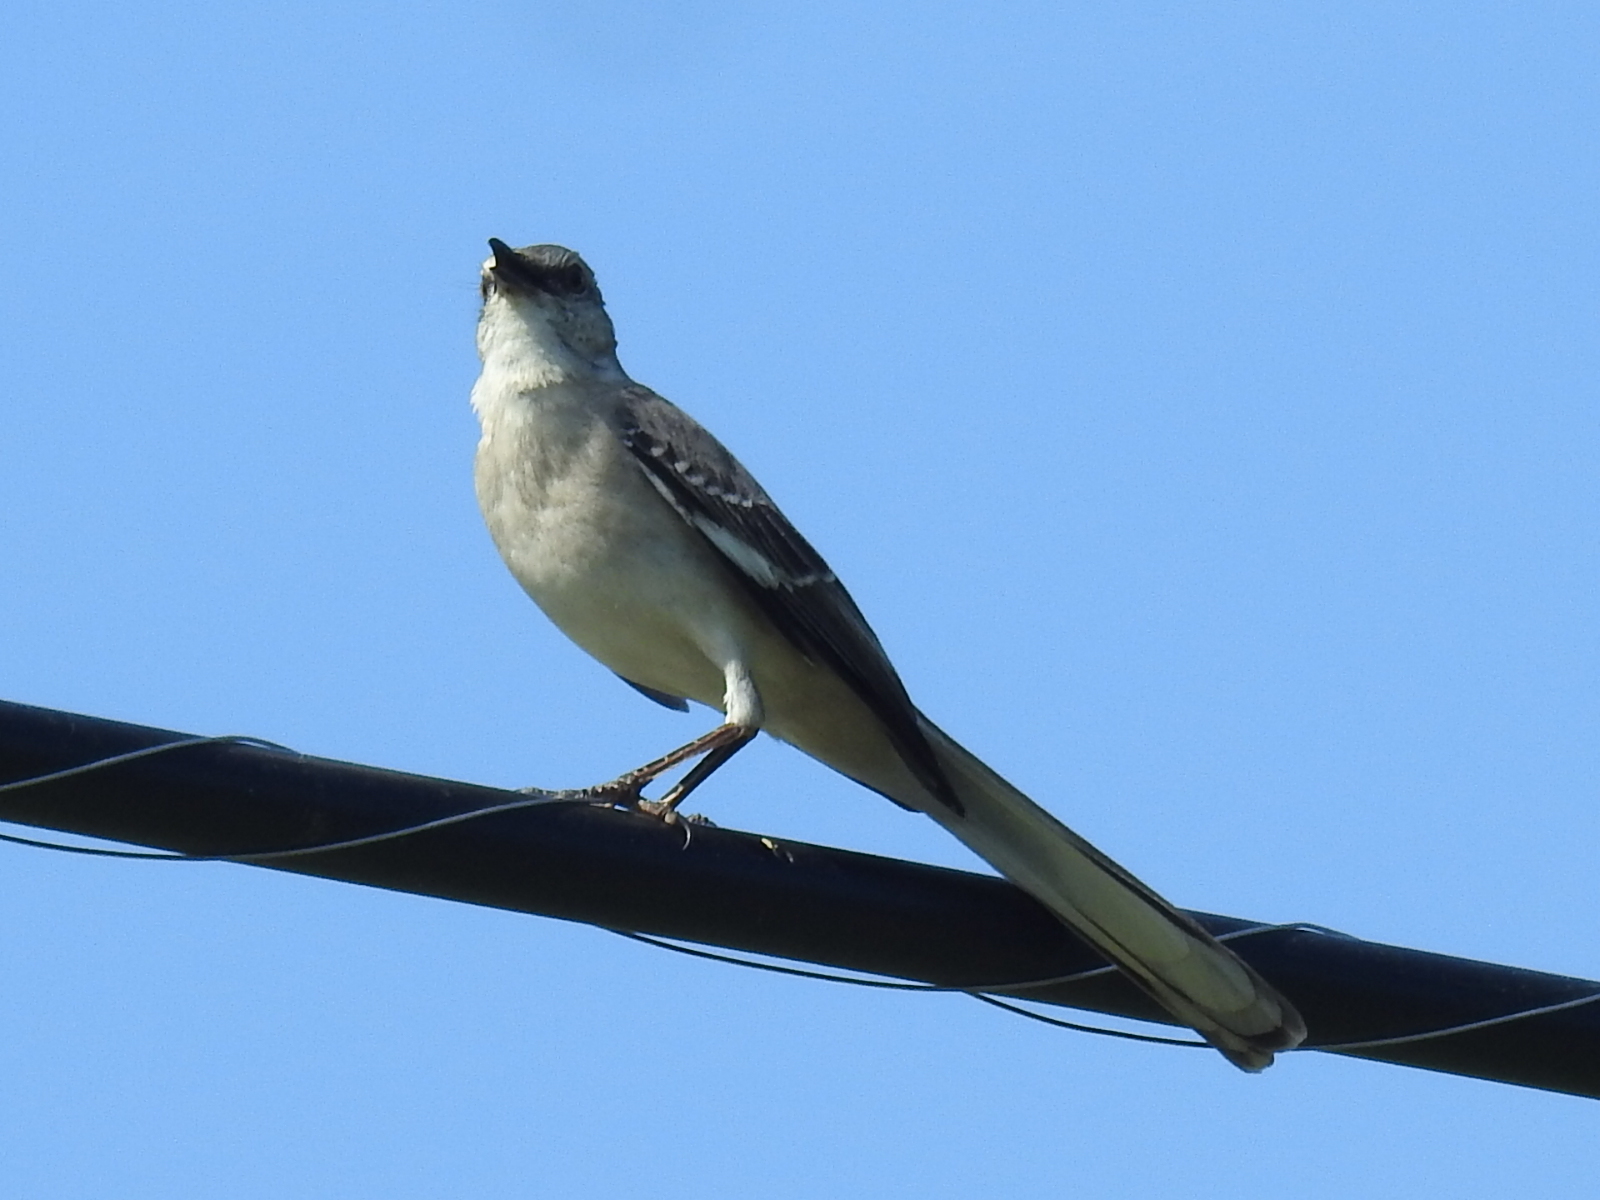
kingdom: Animalia
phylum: Chordata
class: Aves
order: Passeriformes
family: Mimidae
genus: Mimus
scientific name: Mimus polyglottos
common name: Northern mockingbird
